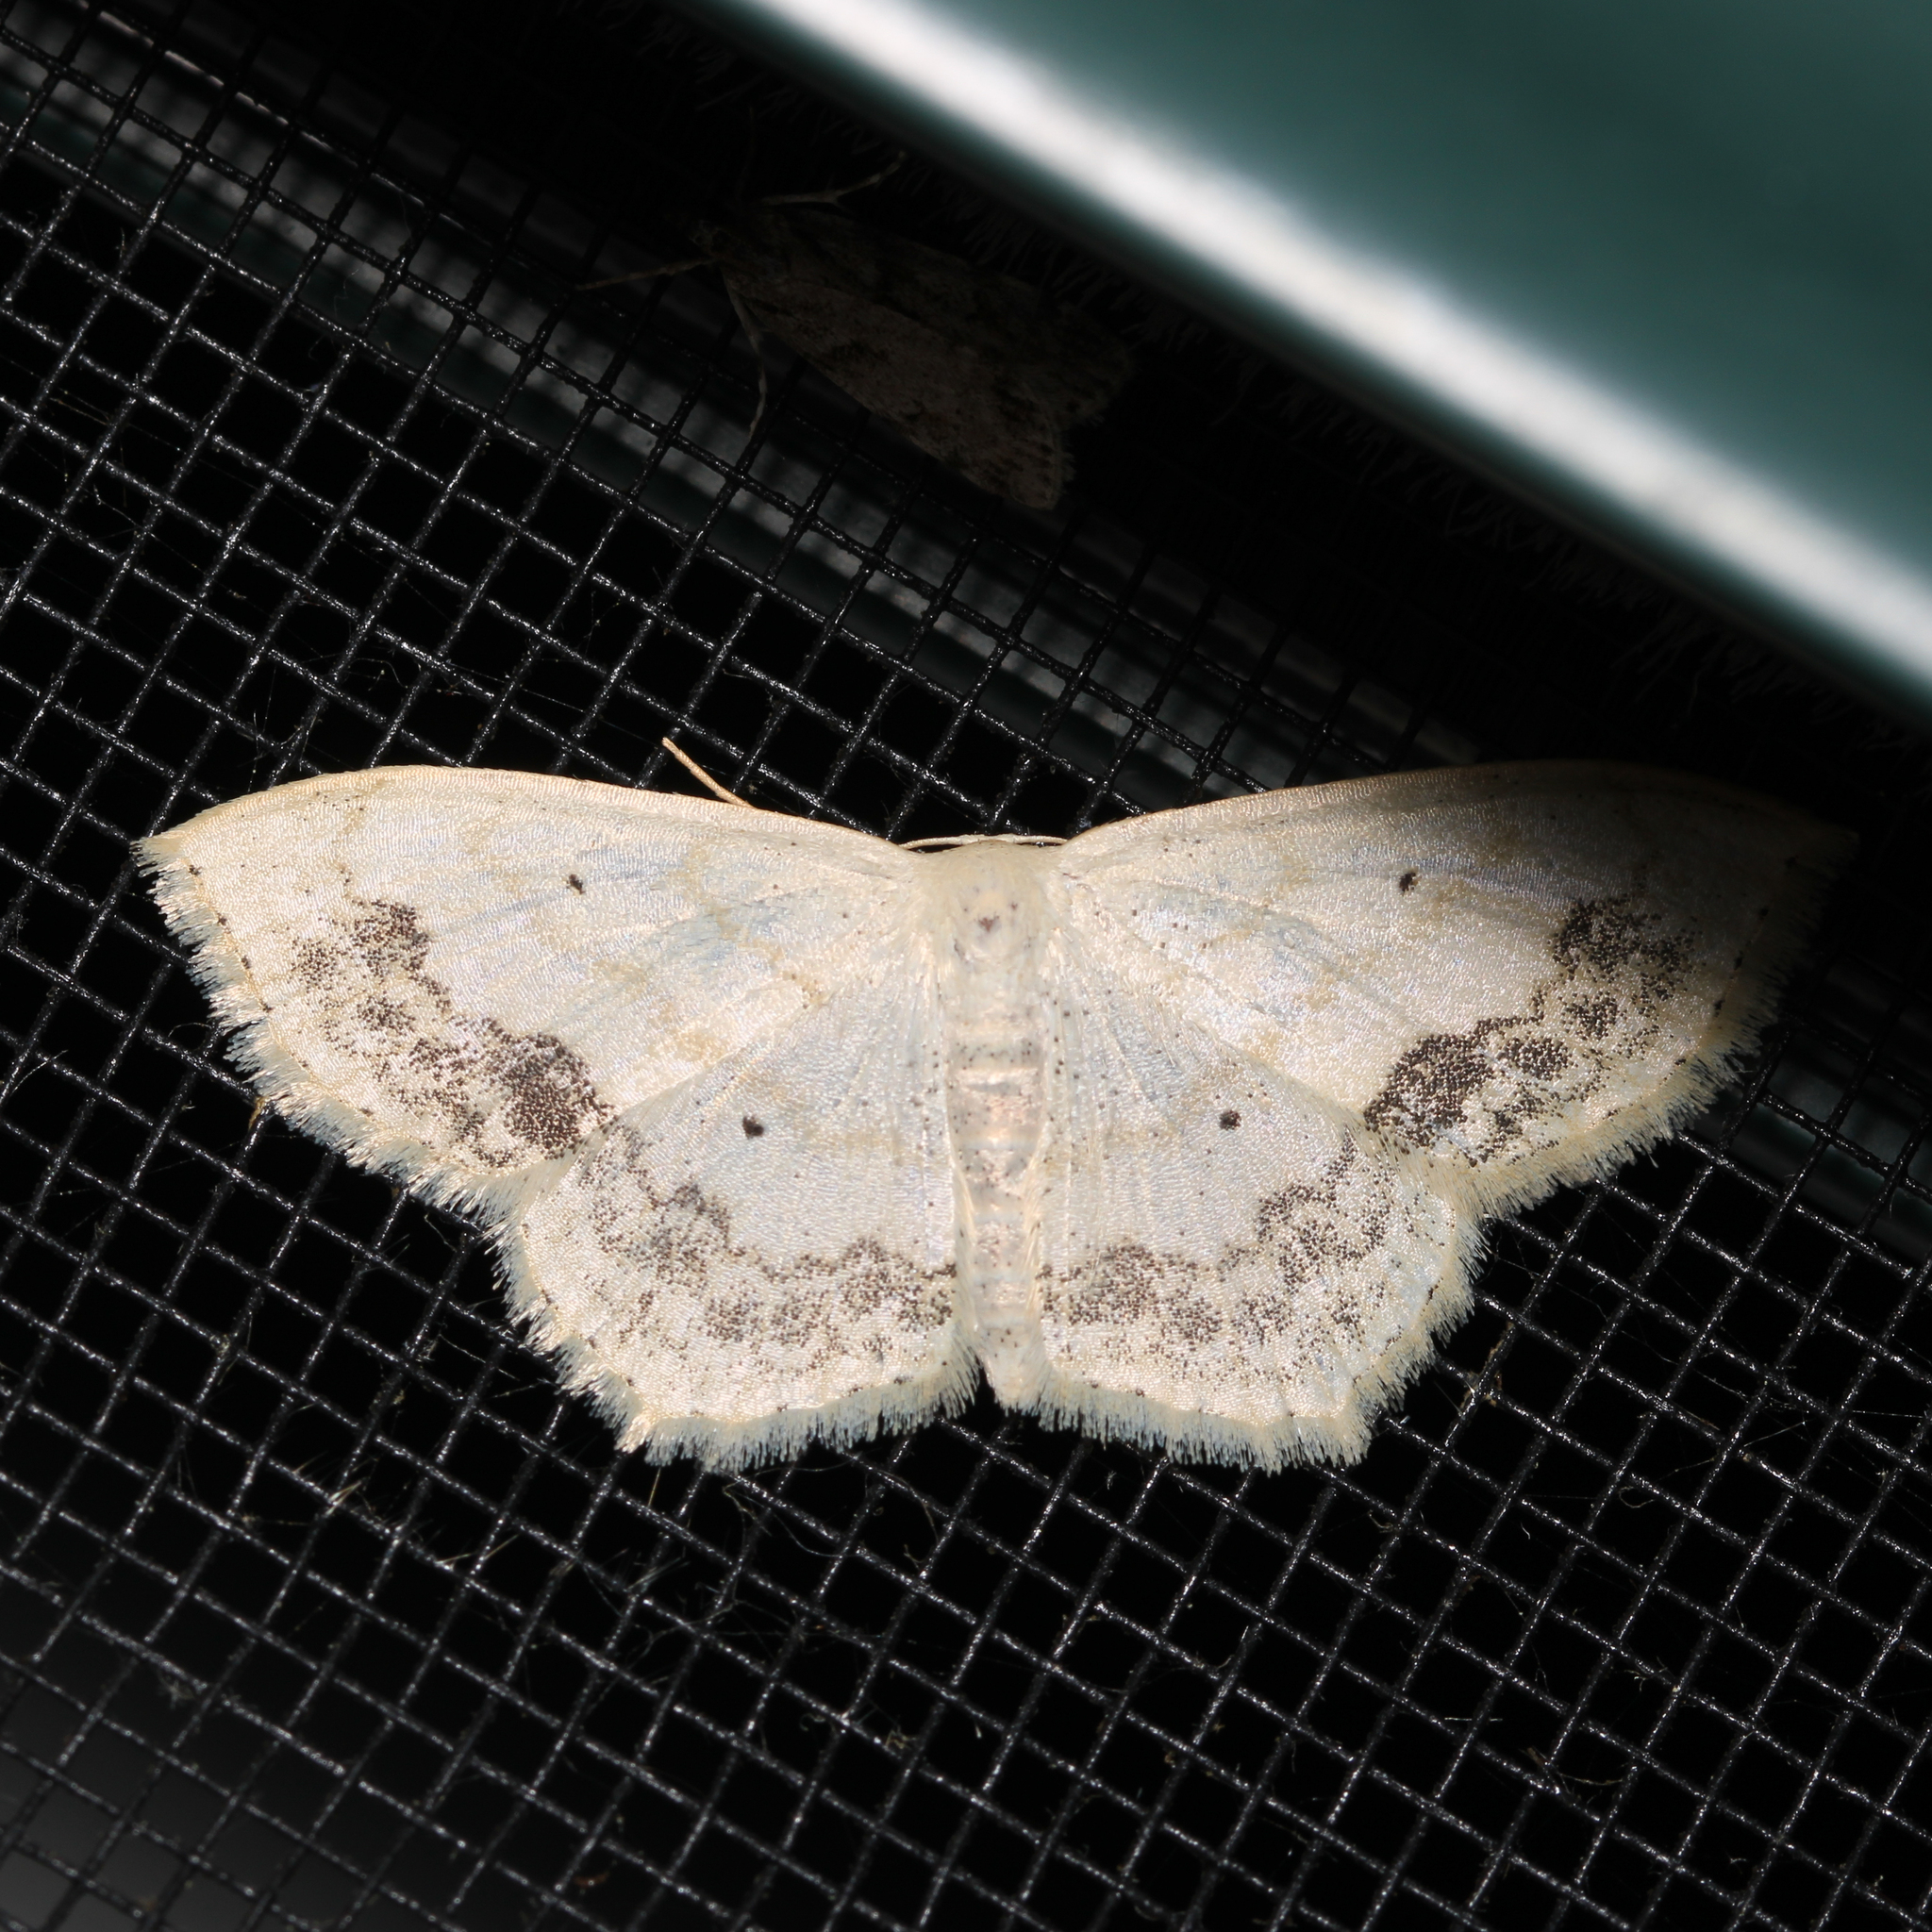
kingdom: Animalia
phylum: Arthropoda
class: Insecta
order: Lepidoptera
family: Geometridae
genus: Scopula
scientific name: Scopula limboundata
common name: Large lace border
